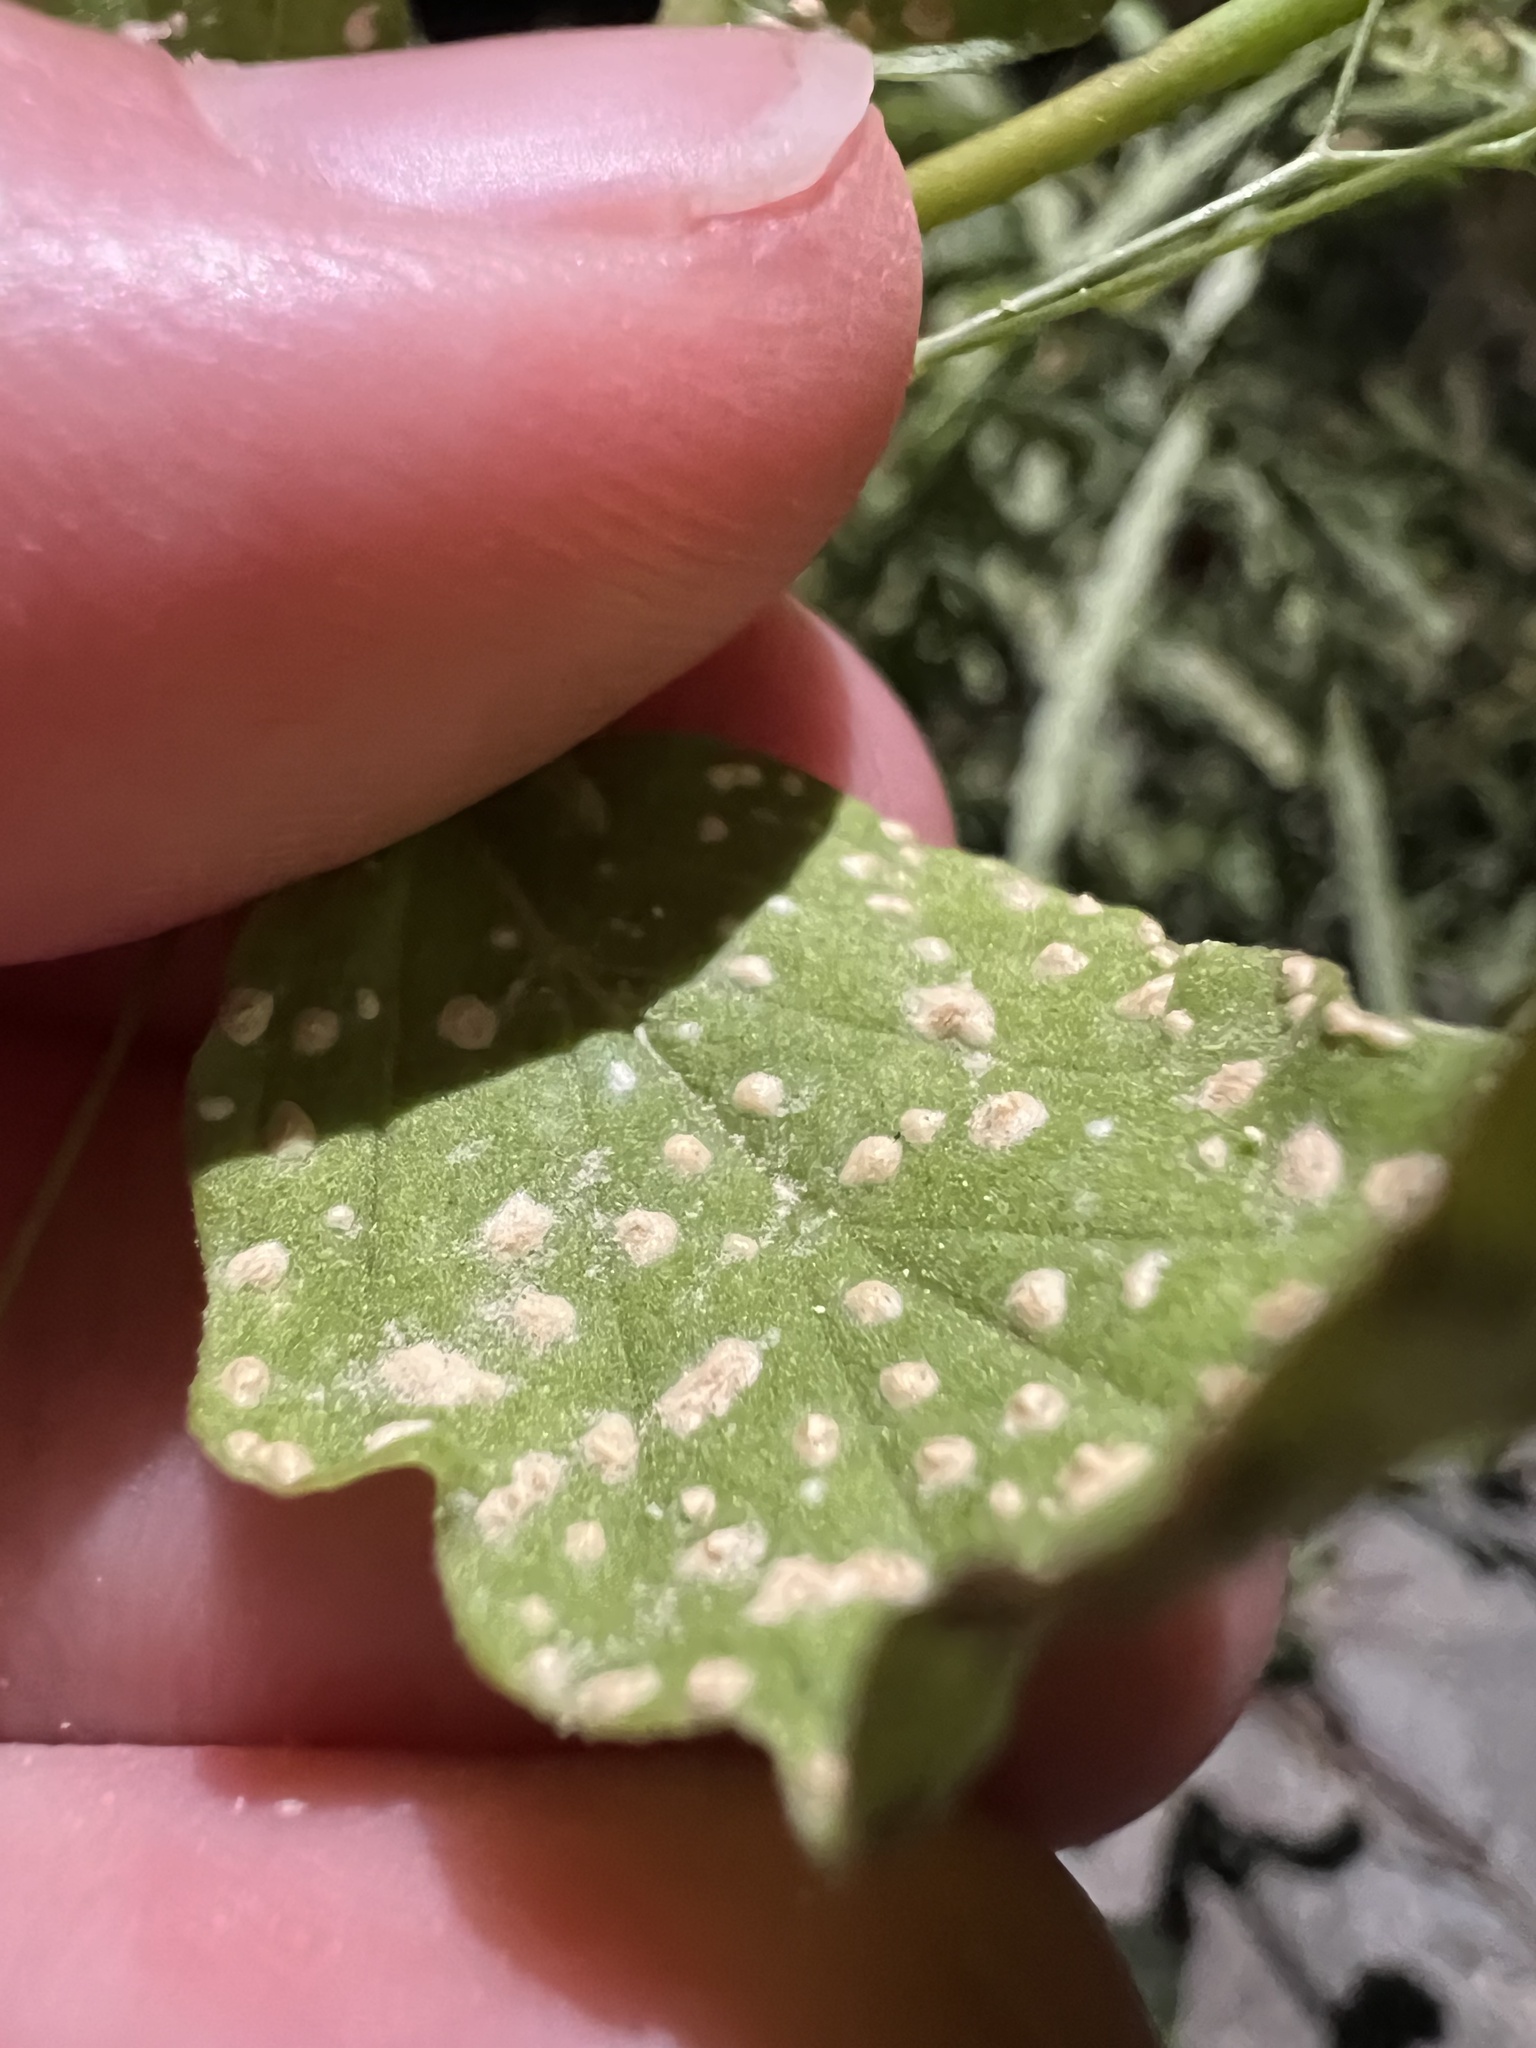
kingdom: Chromista
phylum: Oomycota
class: Peronosporea
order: Albuginales
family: Albuginaceae
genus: Wilsoniana
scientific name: Wilsoniana platensis
